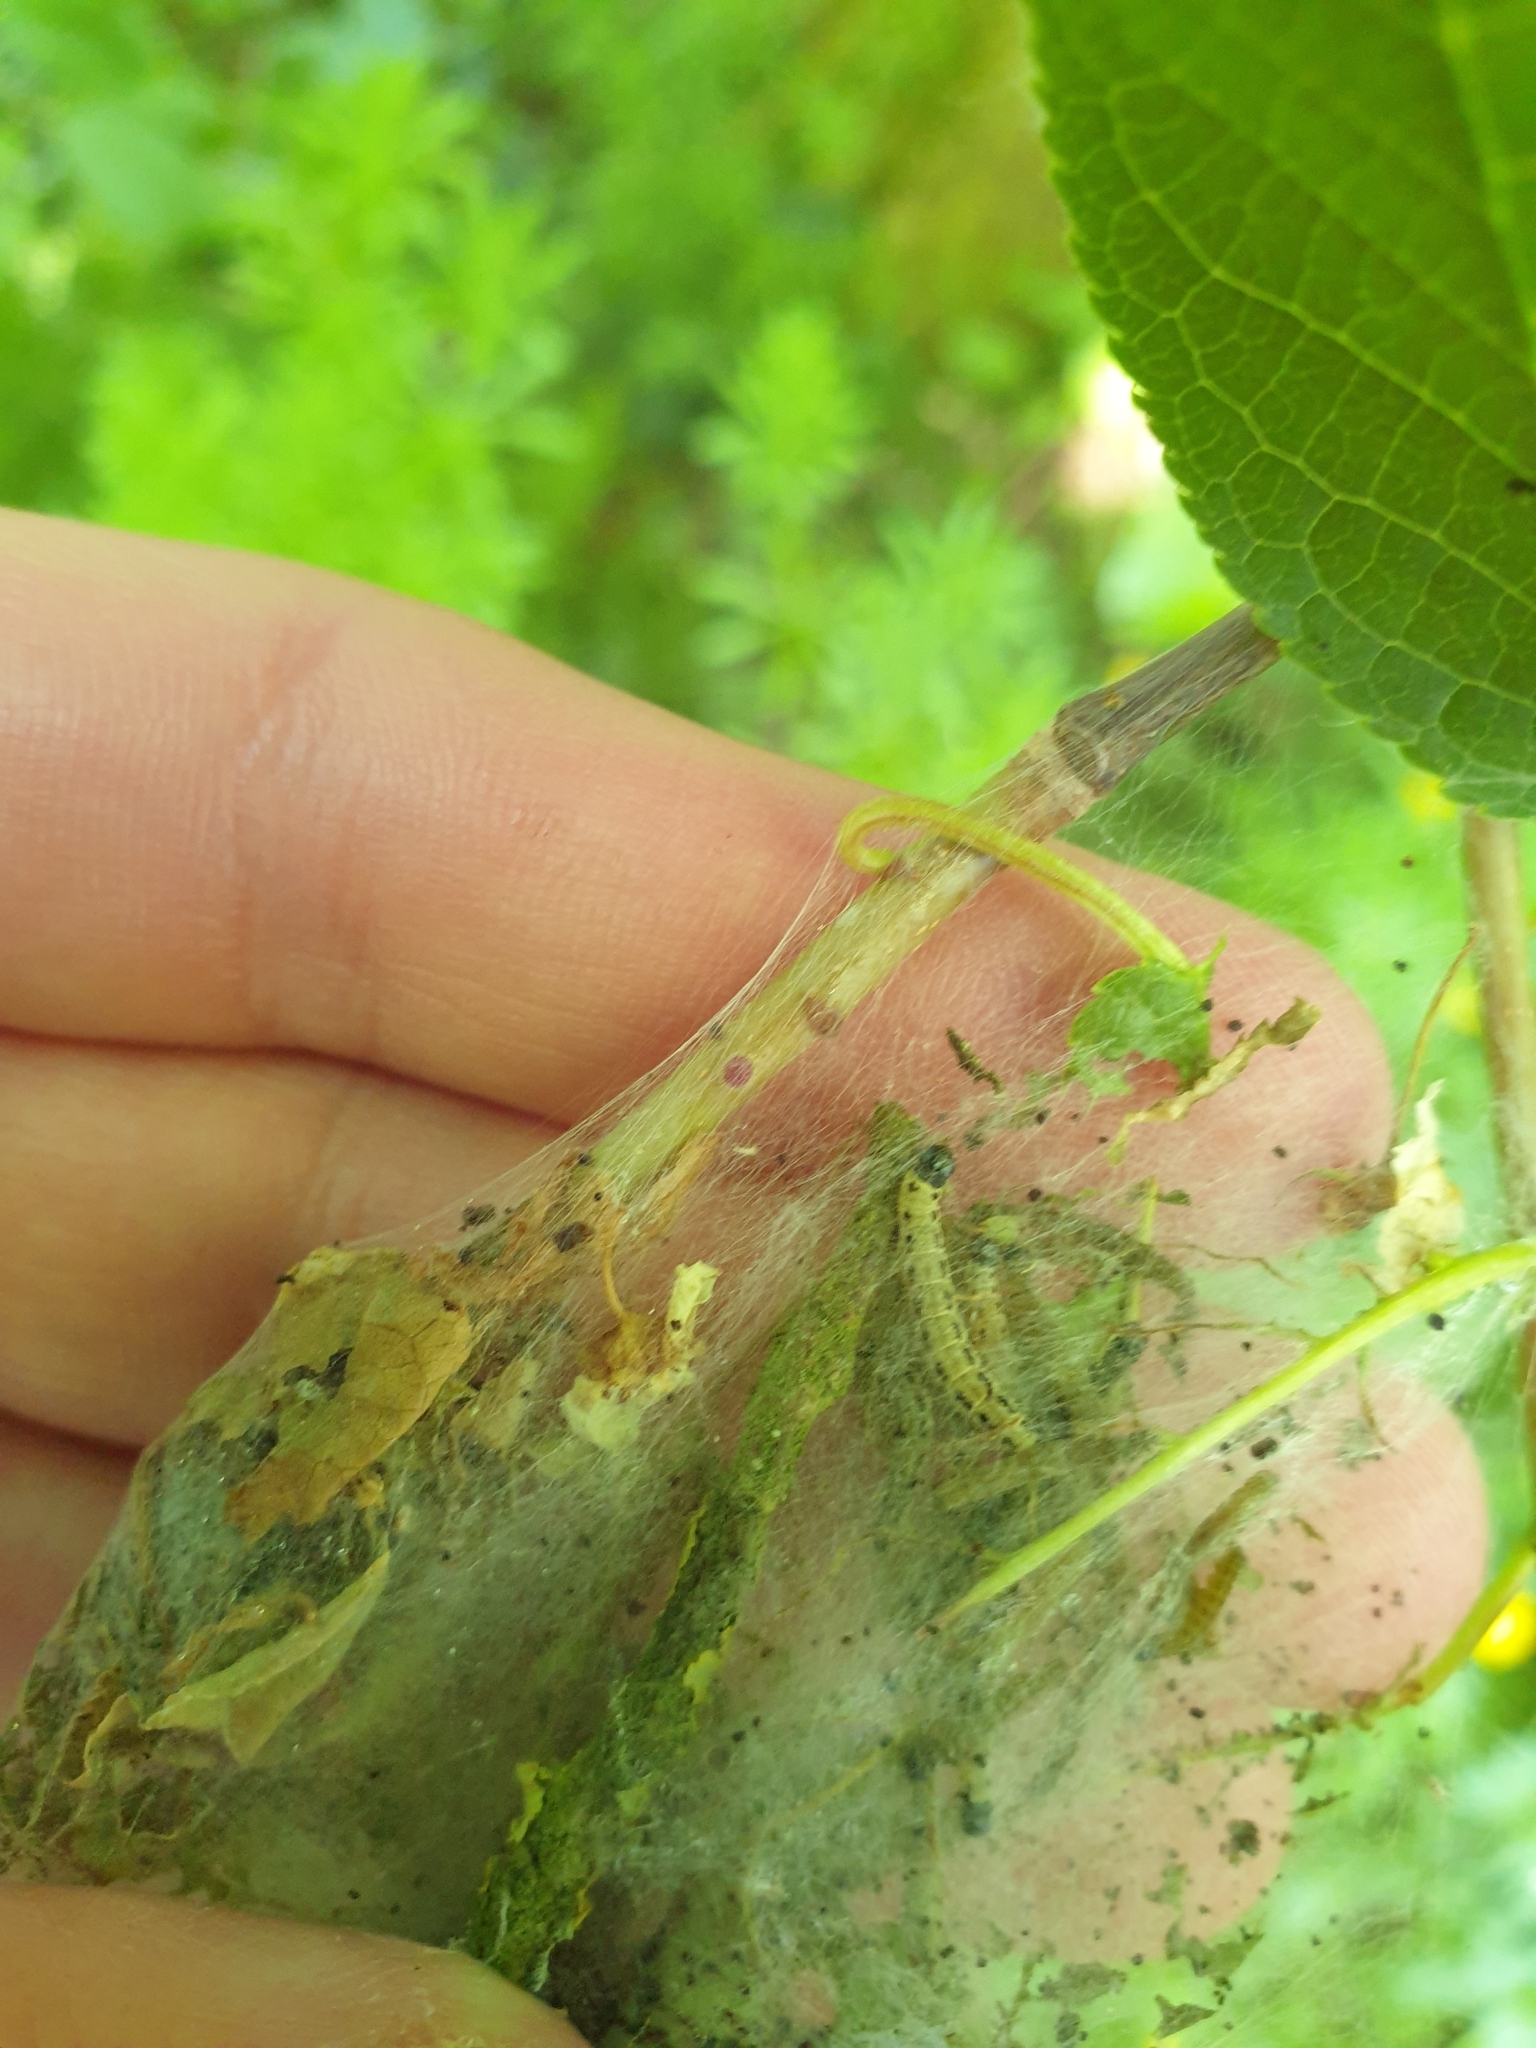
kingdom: Animalia
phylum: Arthropoda
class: Insecta
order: Lepidoptera
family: Yponomeutidae
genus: Yponomeuta
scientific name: Yponomeuta evonymella
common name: Bird-cherry ermine
